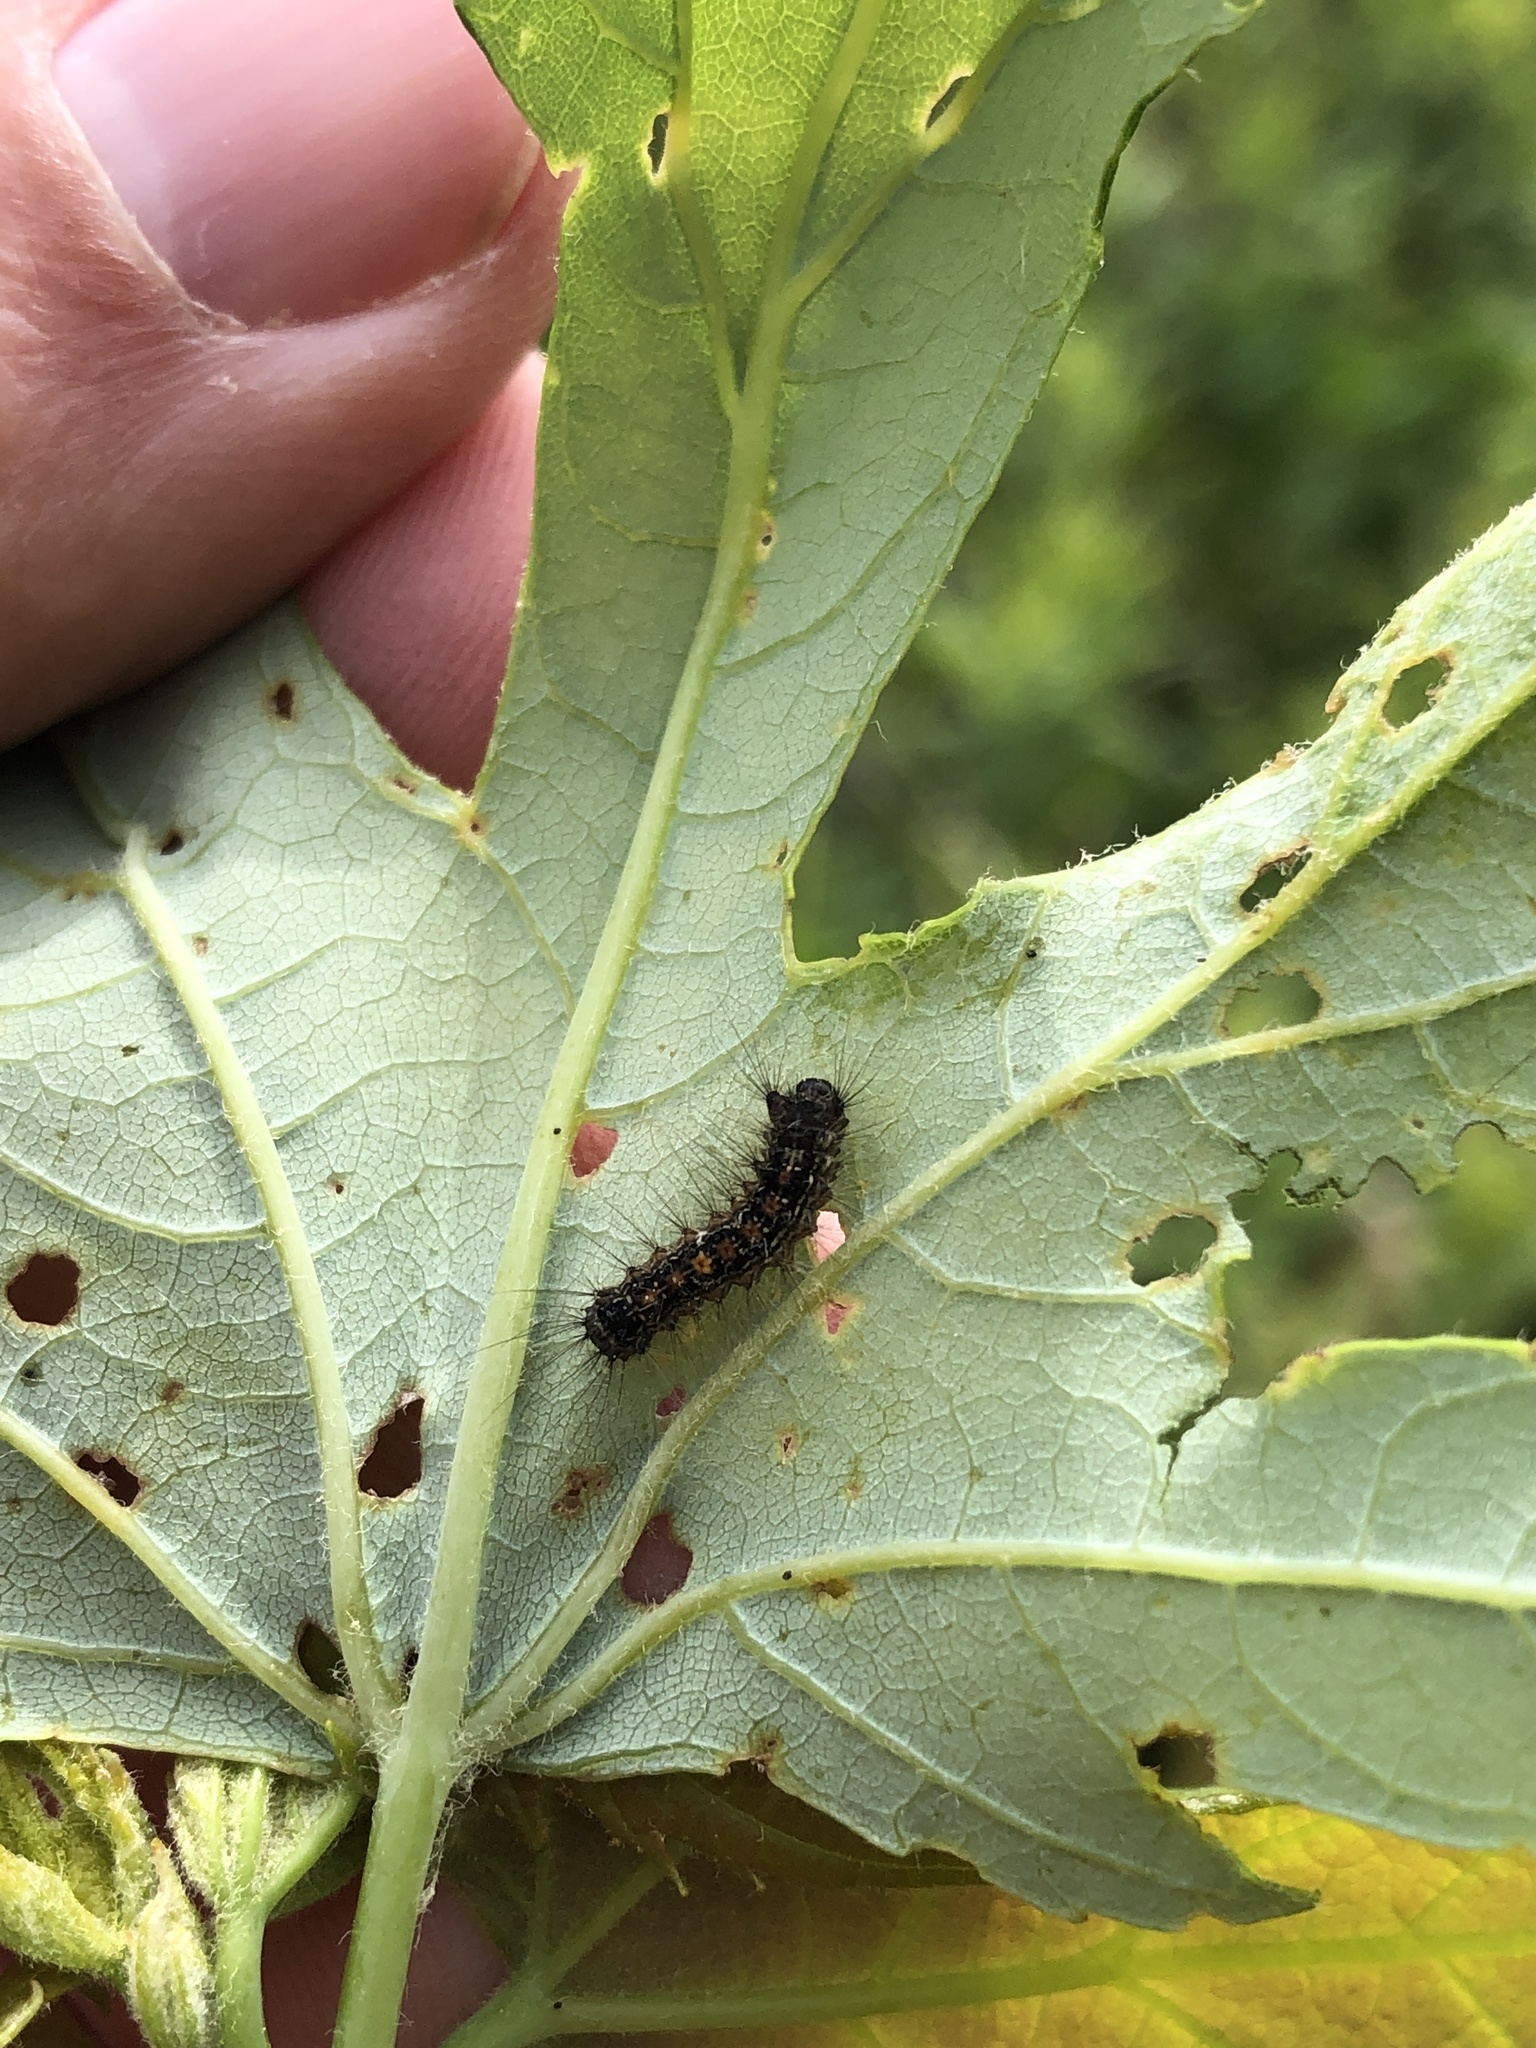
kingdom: Animalia
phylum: Arthropoda
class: Insecta
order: Lepidoptera
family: Erebidae
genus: Lymantria
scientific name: Lymantria dispar
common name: Gypsy moth
